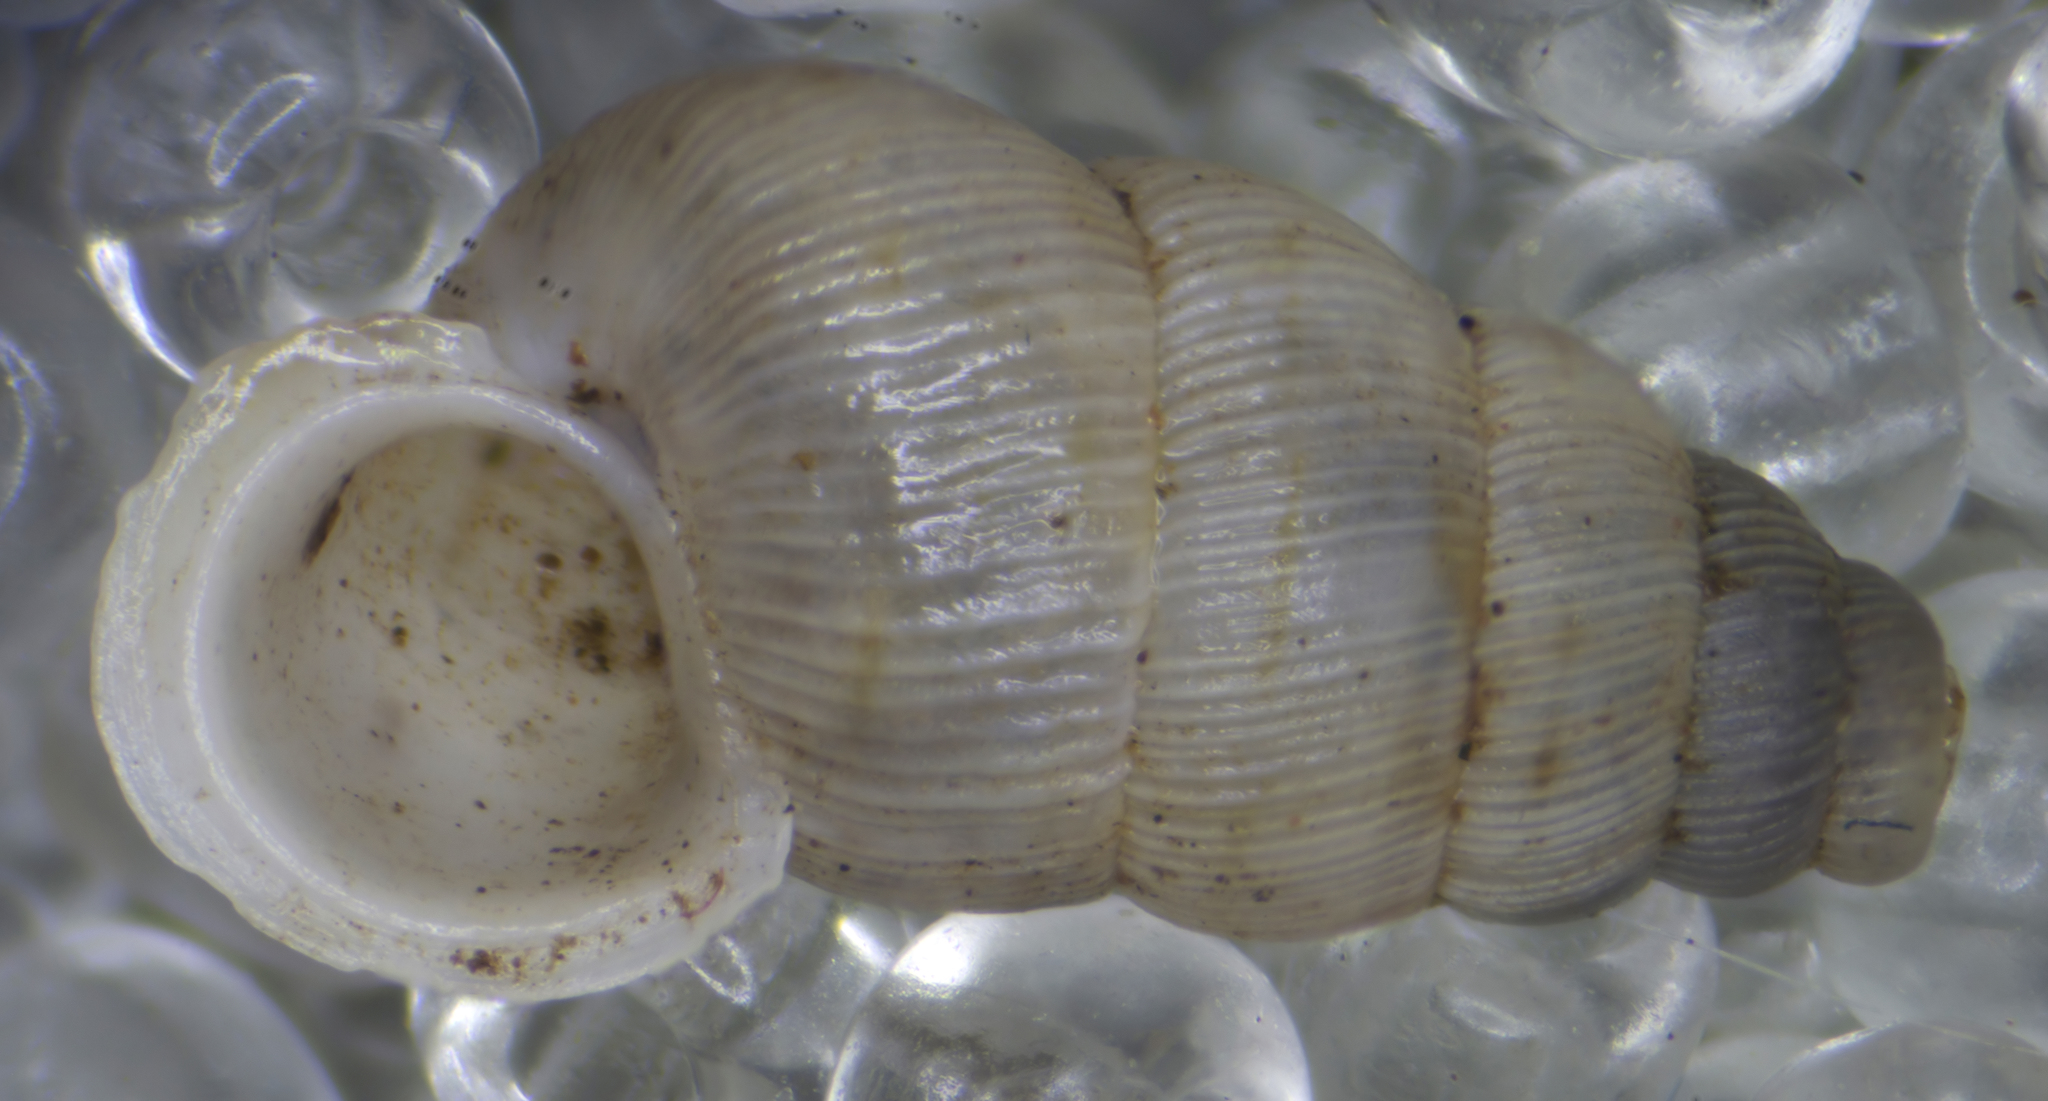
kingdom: Animalia
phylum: Mollusca
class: Gastropoda
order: Architaenioglossa
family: Cochlostomatidae
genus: Cochlostoma
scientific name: Cochlostoma tessellatum
